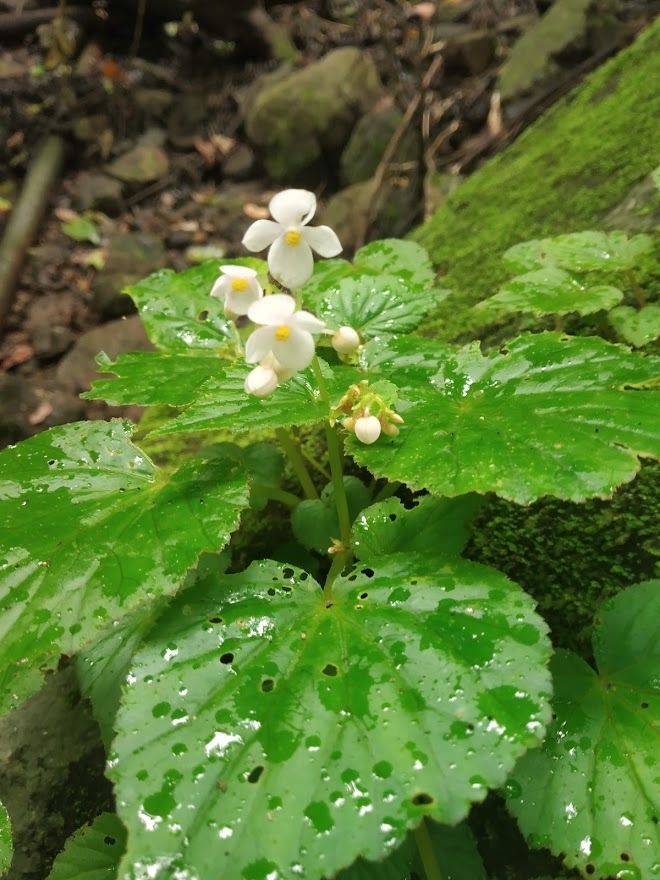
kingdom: Plantae
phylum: Tracheophyta
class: Magnoliopsida
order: Cucurbitales
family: Begoniaceae
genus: Begonia
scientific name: Begonia crenata
